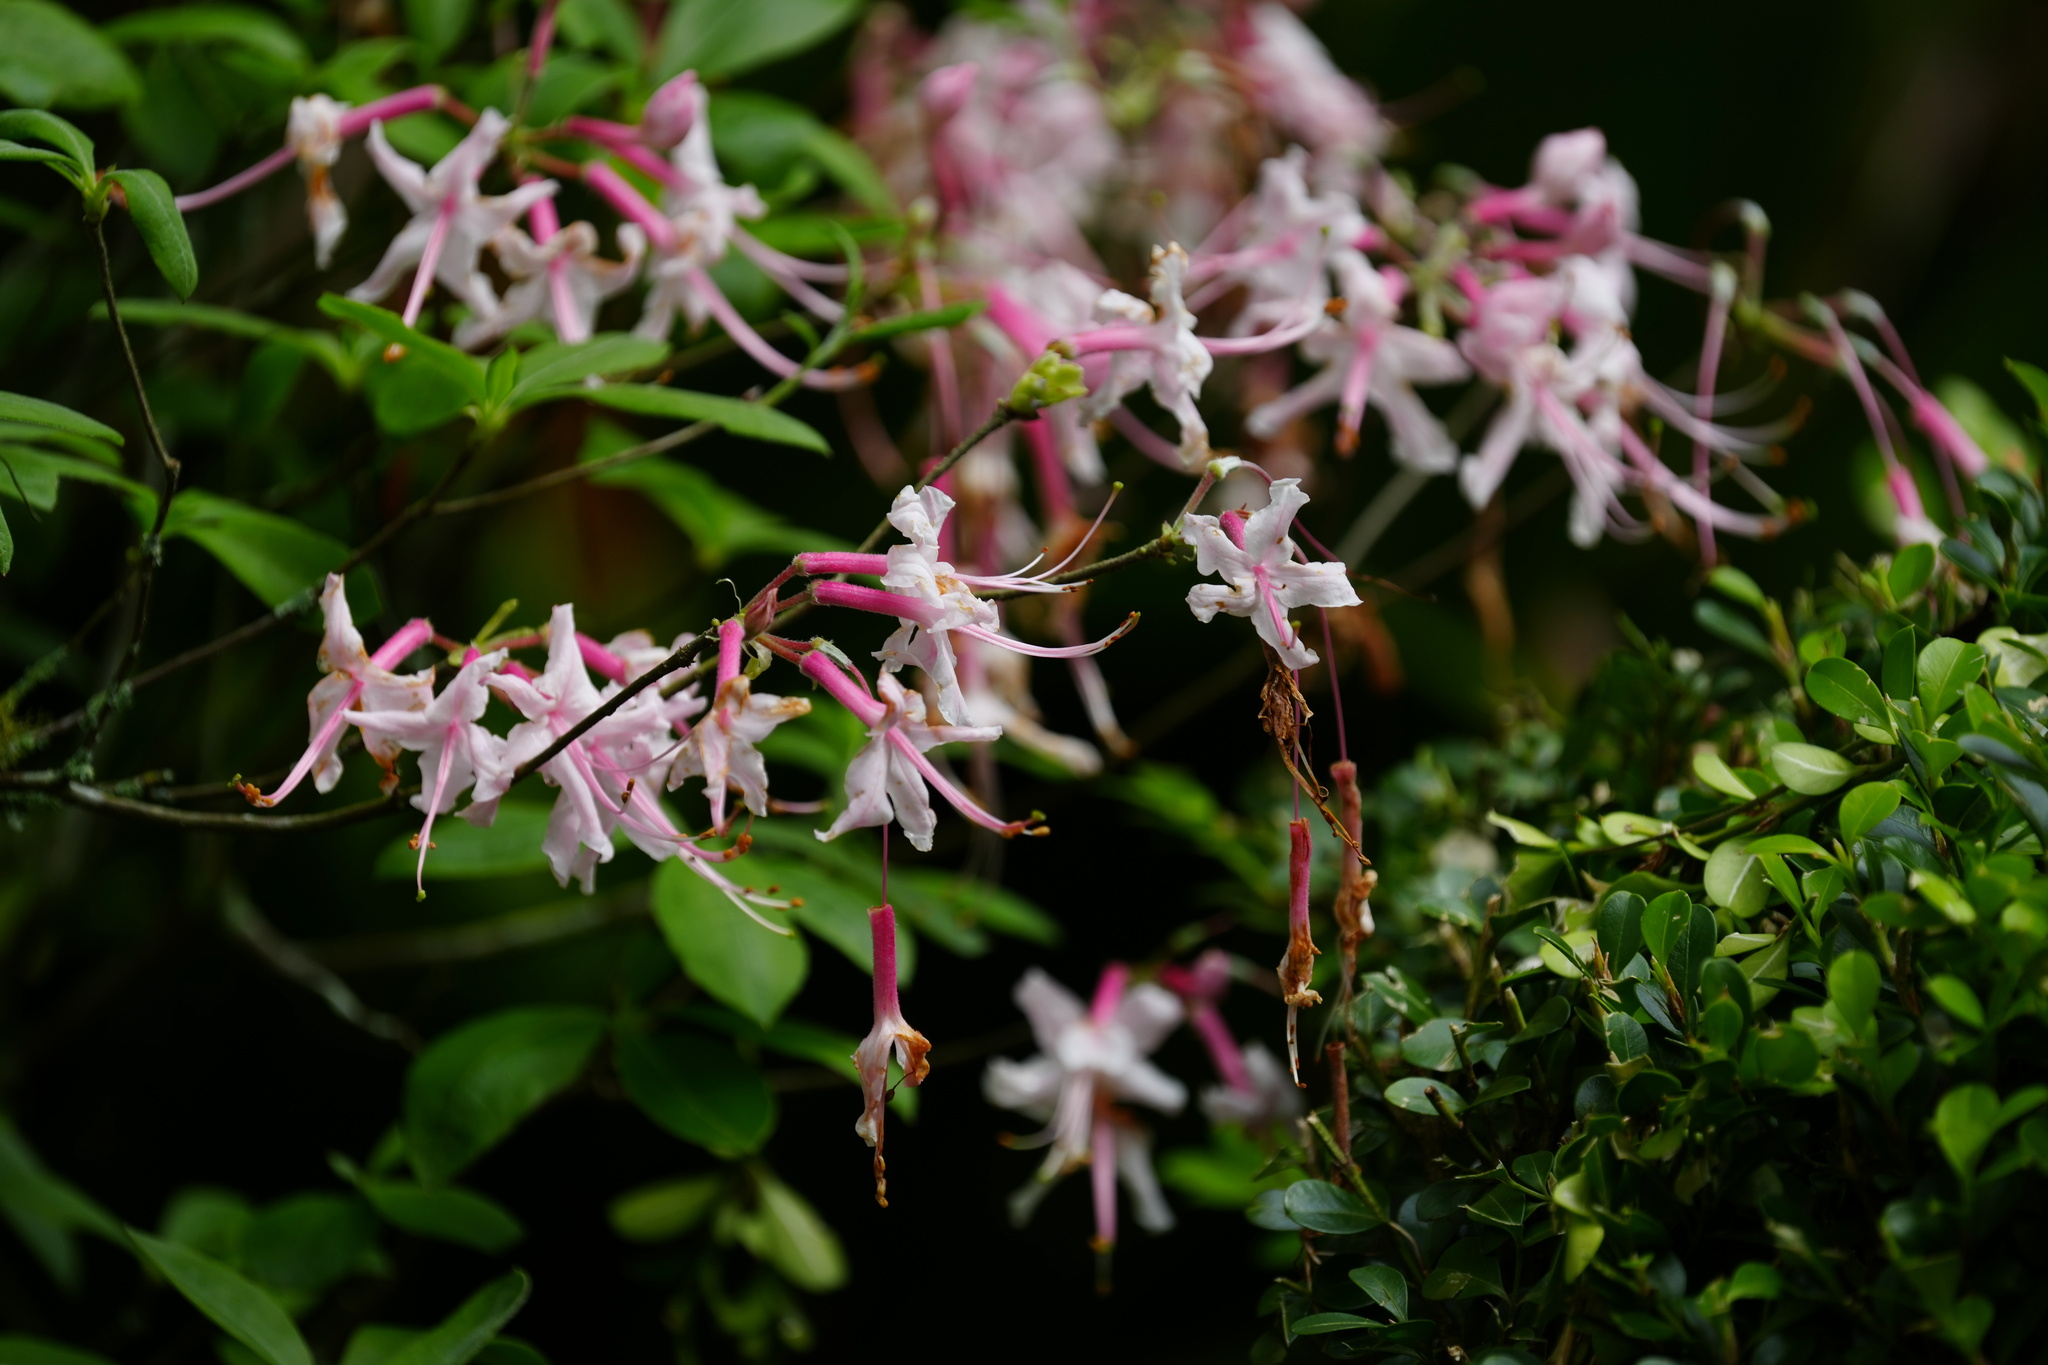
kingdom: Plantae
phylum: Tracheophyta
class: Magnoliopsida
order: Ericales
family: Ericaceae
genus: Rhododendron
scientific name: Rhododendron canescens
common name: Mountain azalea
